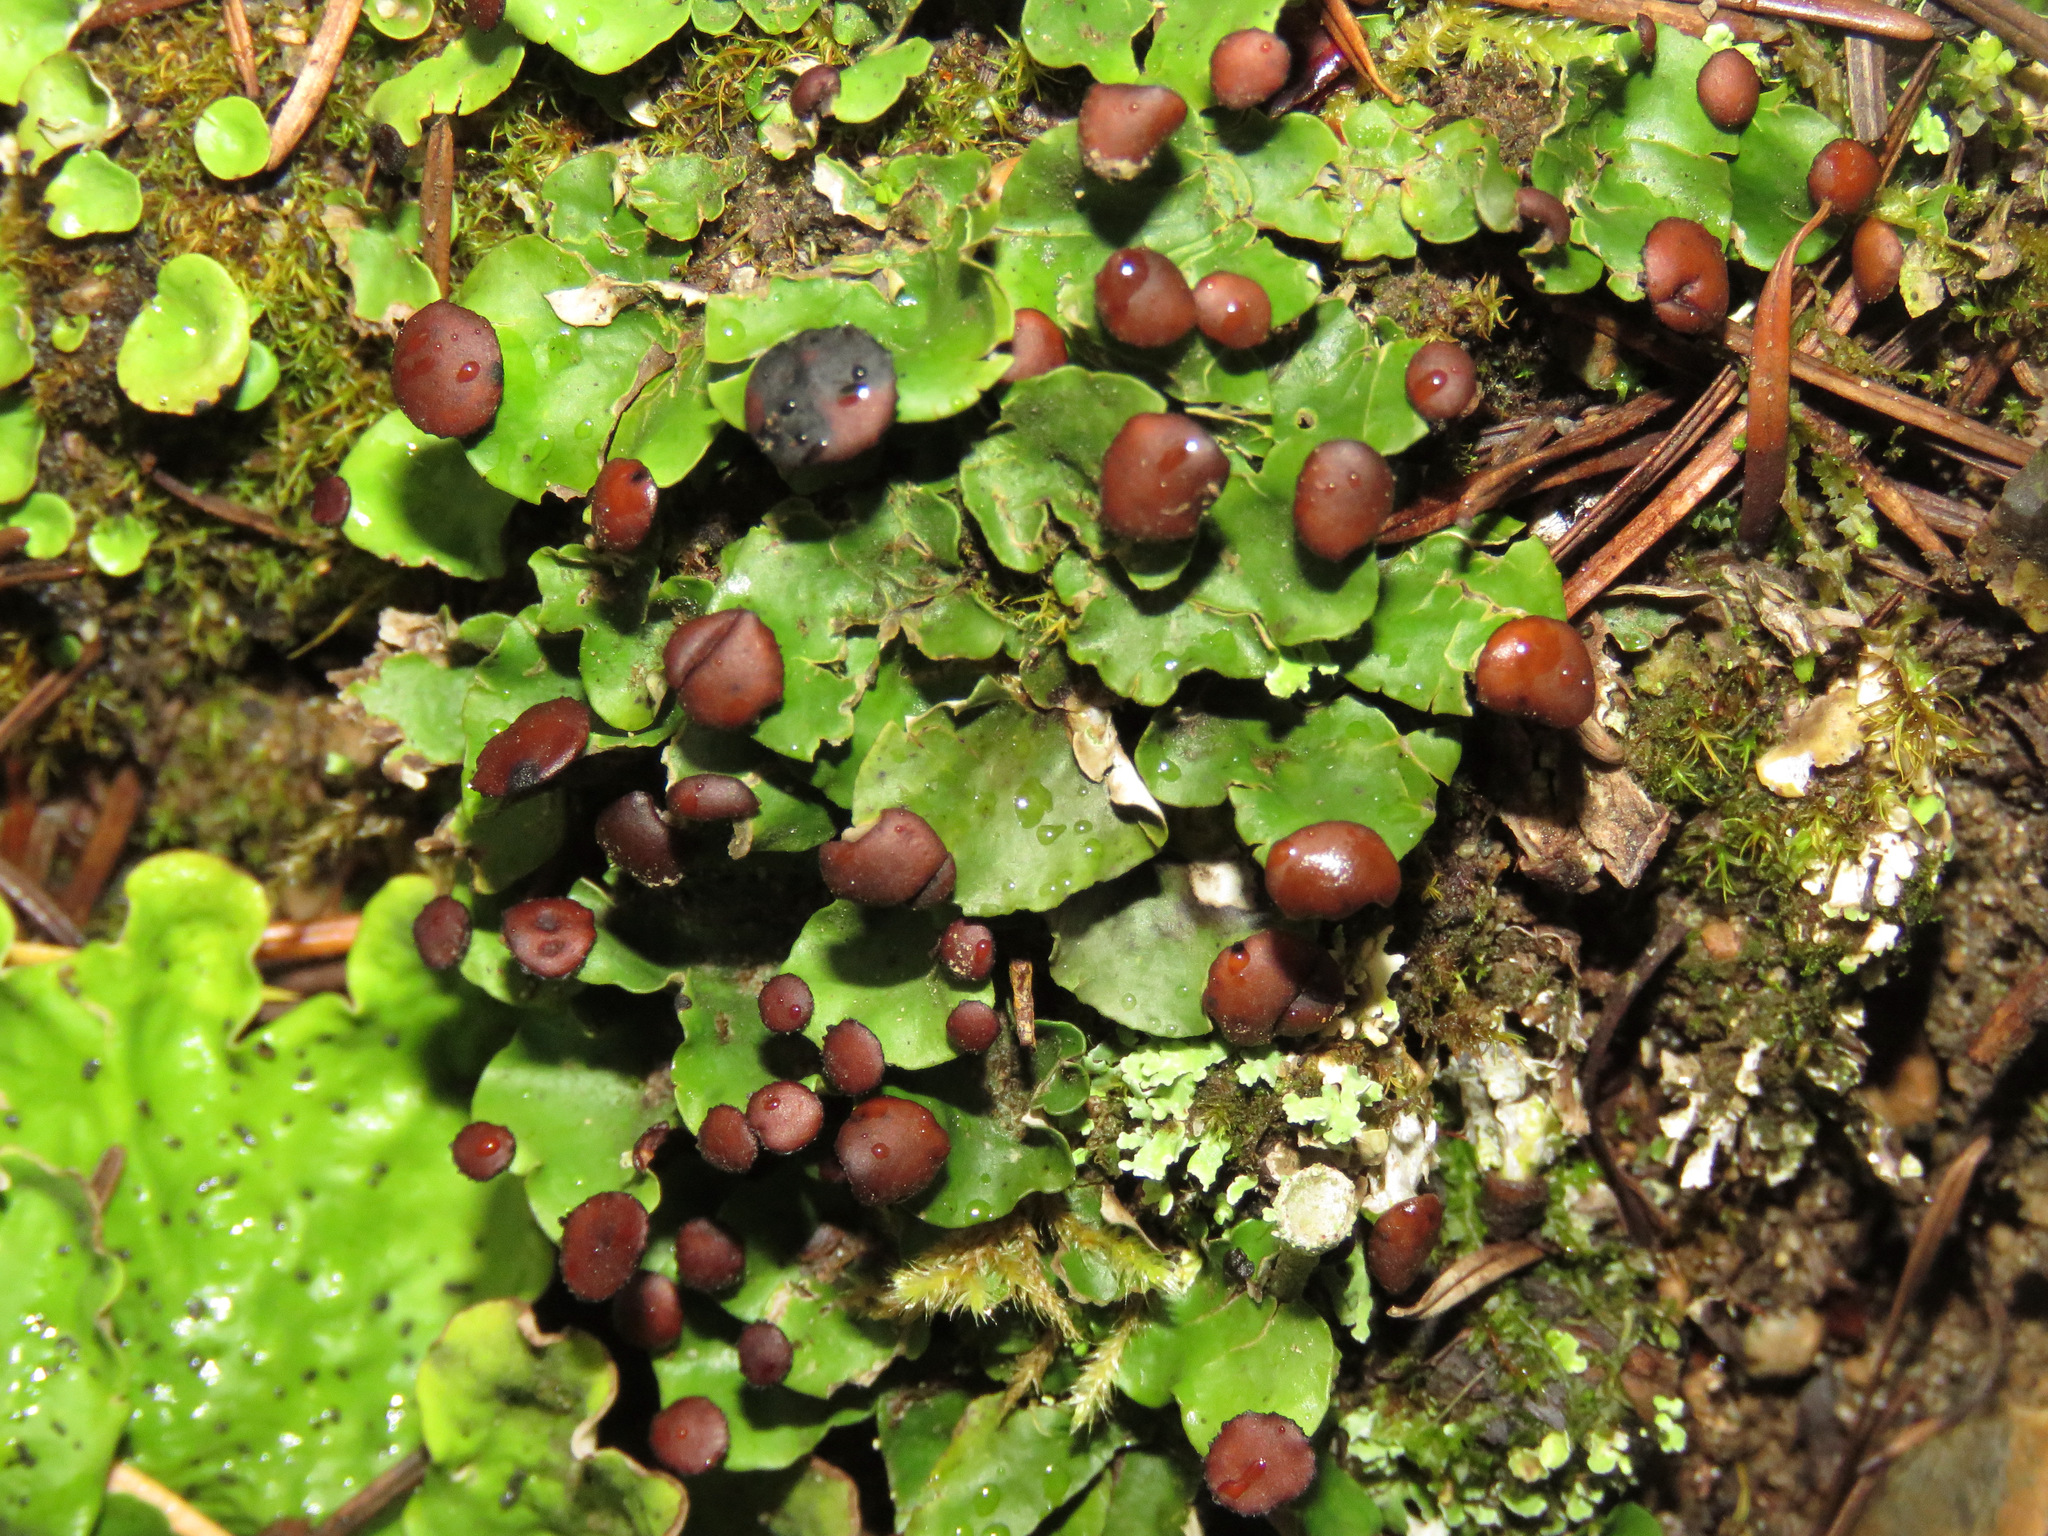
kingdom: Fungi
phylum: Ascomycota
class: Lecanoromycetes
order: Peltigerales
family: Peltigeraceae
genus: Peltigera
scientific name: Peltigera venosa
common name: Pixie gowns lichen
